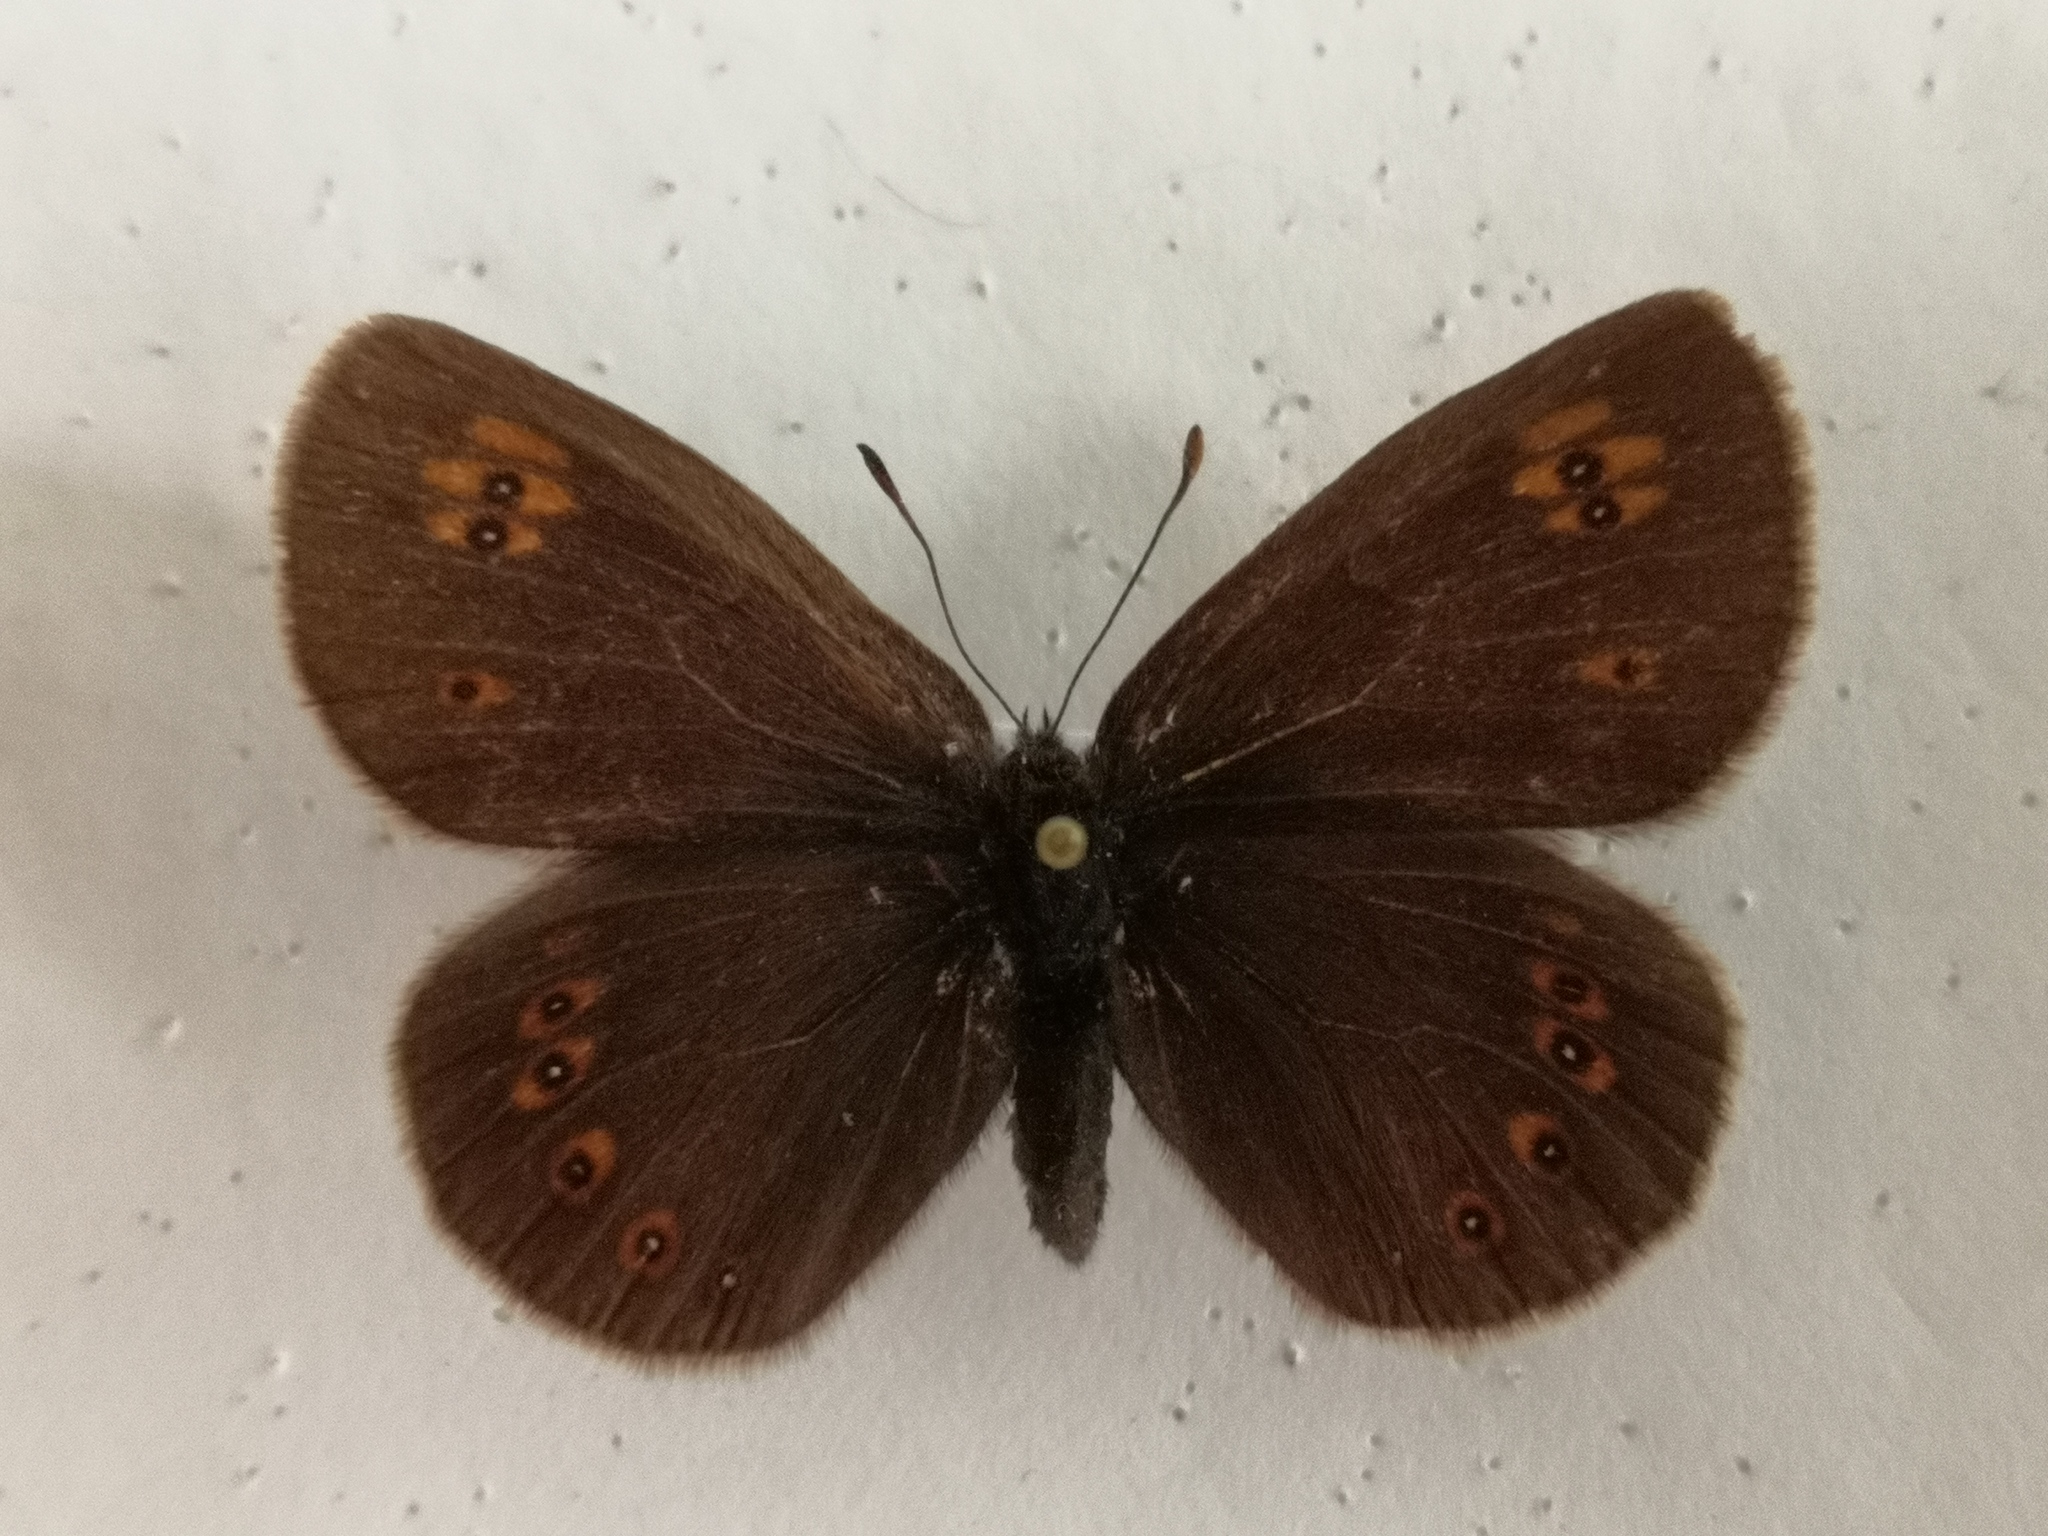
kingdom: Animalia
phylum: Arthropoda
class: Insecta
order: Lepidoptera
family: Nymphalidae
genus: Erebia
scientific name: Erebia alberganus
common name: Almond-eyed ringlet
